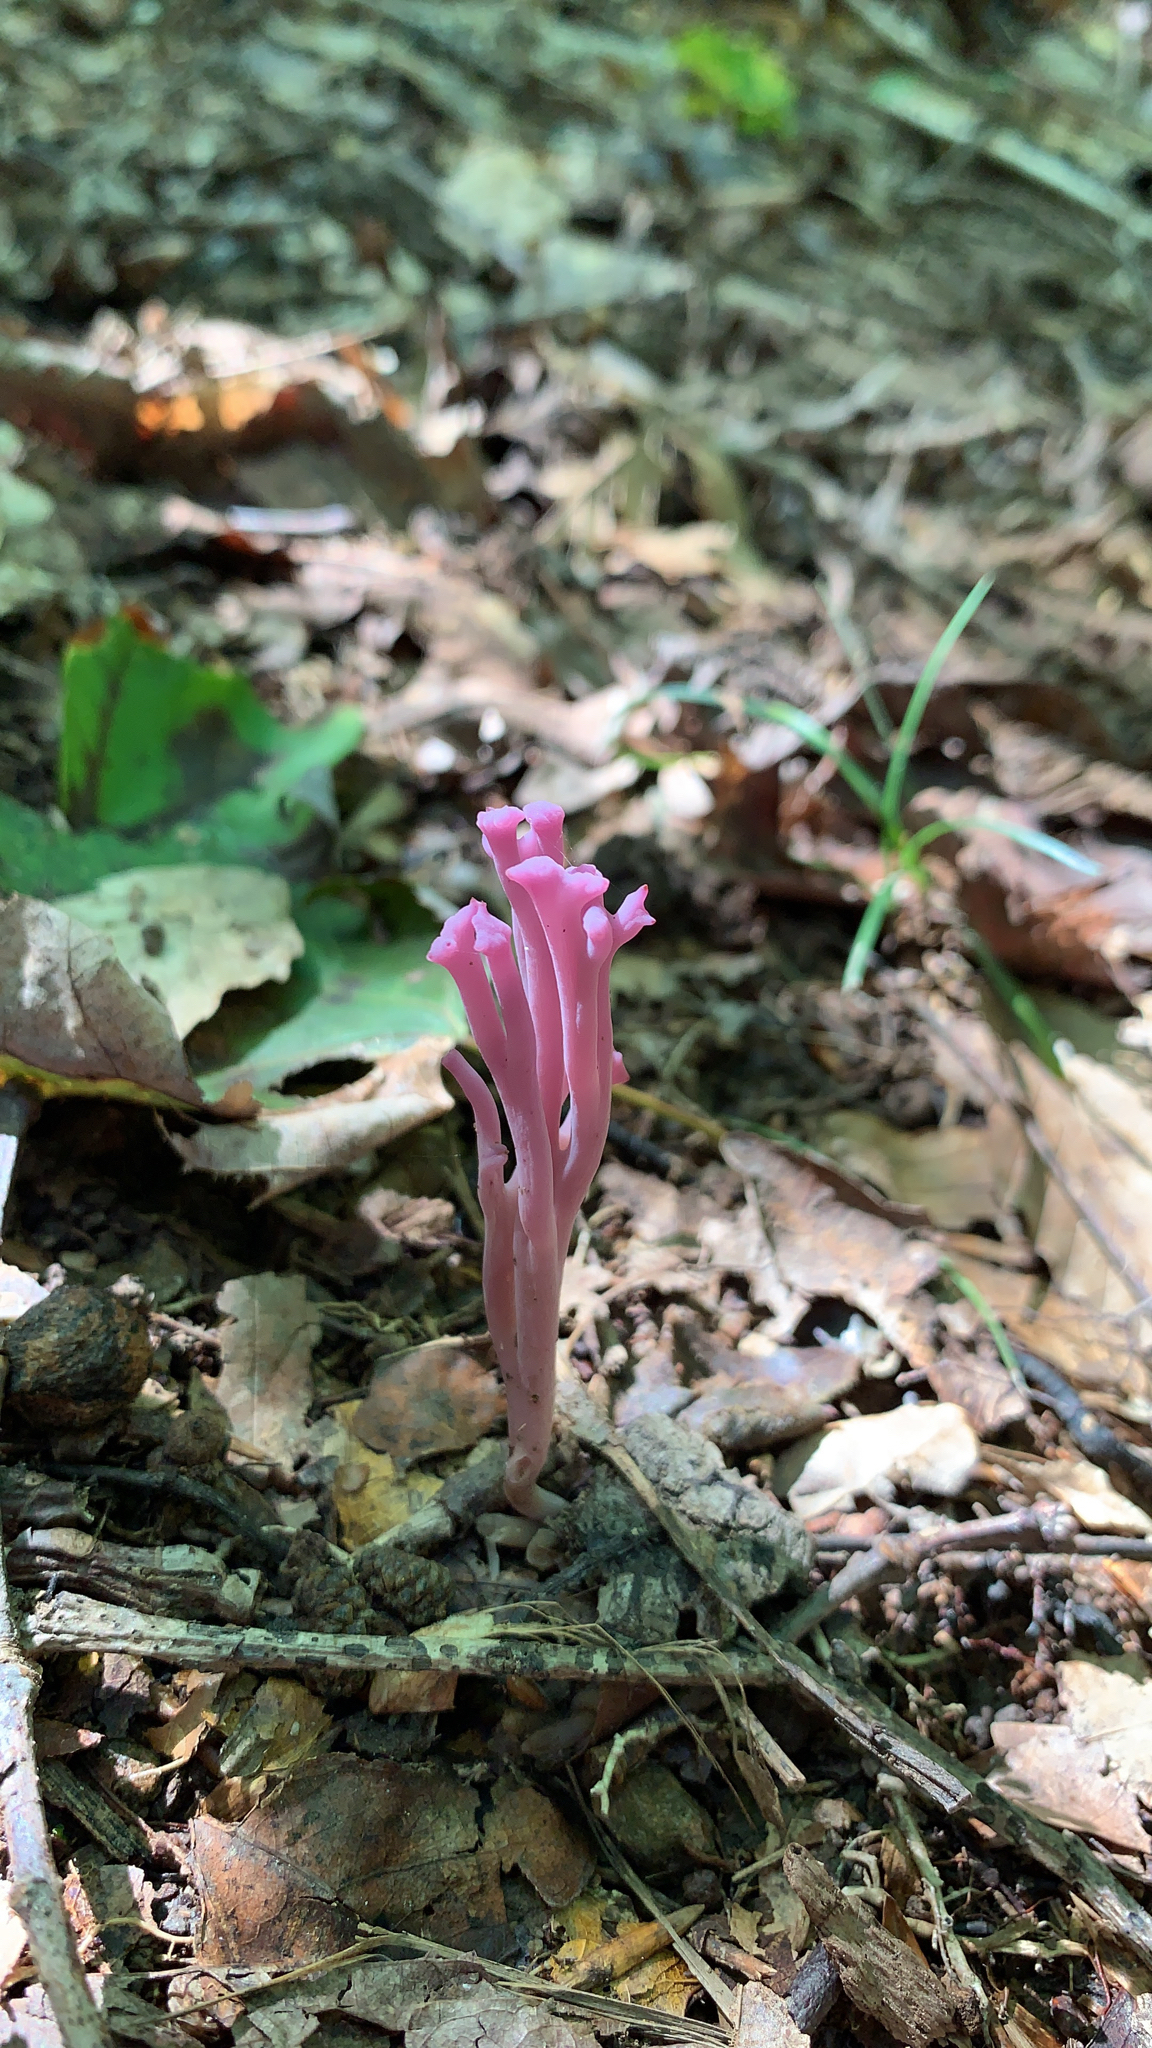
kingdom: Fungi
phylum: Basidiomycota
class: Agaricomycetes
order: Agaricales
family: Clavariaceae
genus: Clavaria
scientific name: Clavaria zollingeri
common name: Violet coral
